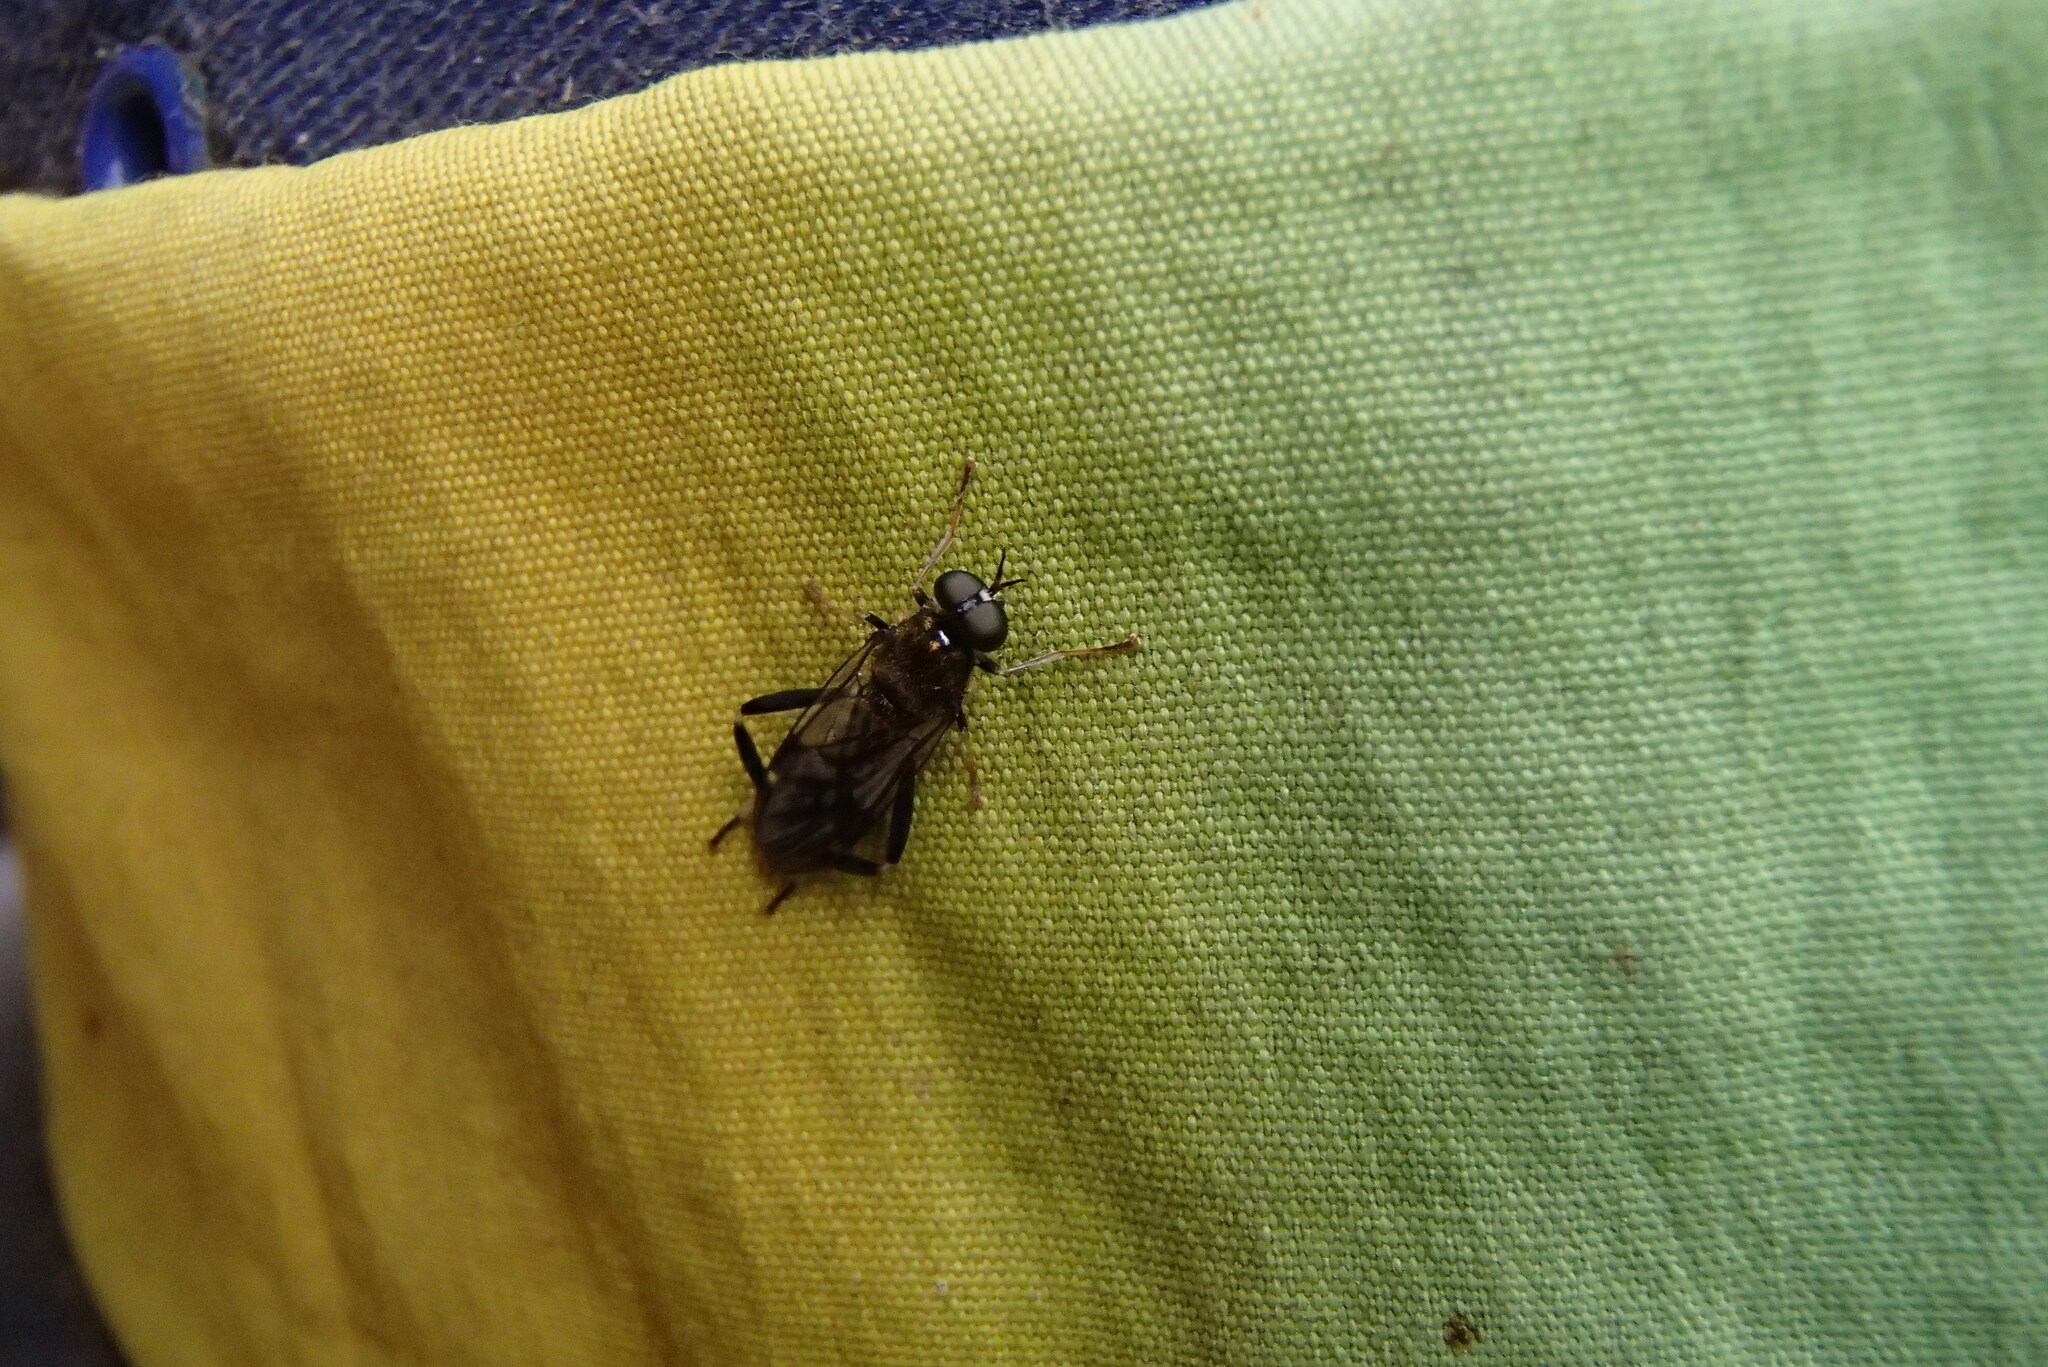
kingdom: Animalia
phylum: Arthropoda
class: Insecta
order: Diptera
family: Stratiomyidae
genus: Exaireta
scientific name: Exaireta spinigera
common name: Blue soldier fly
